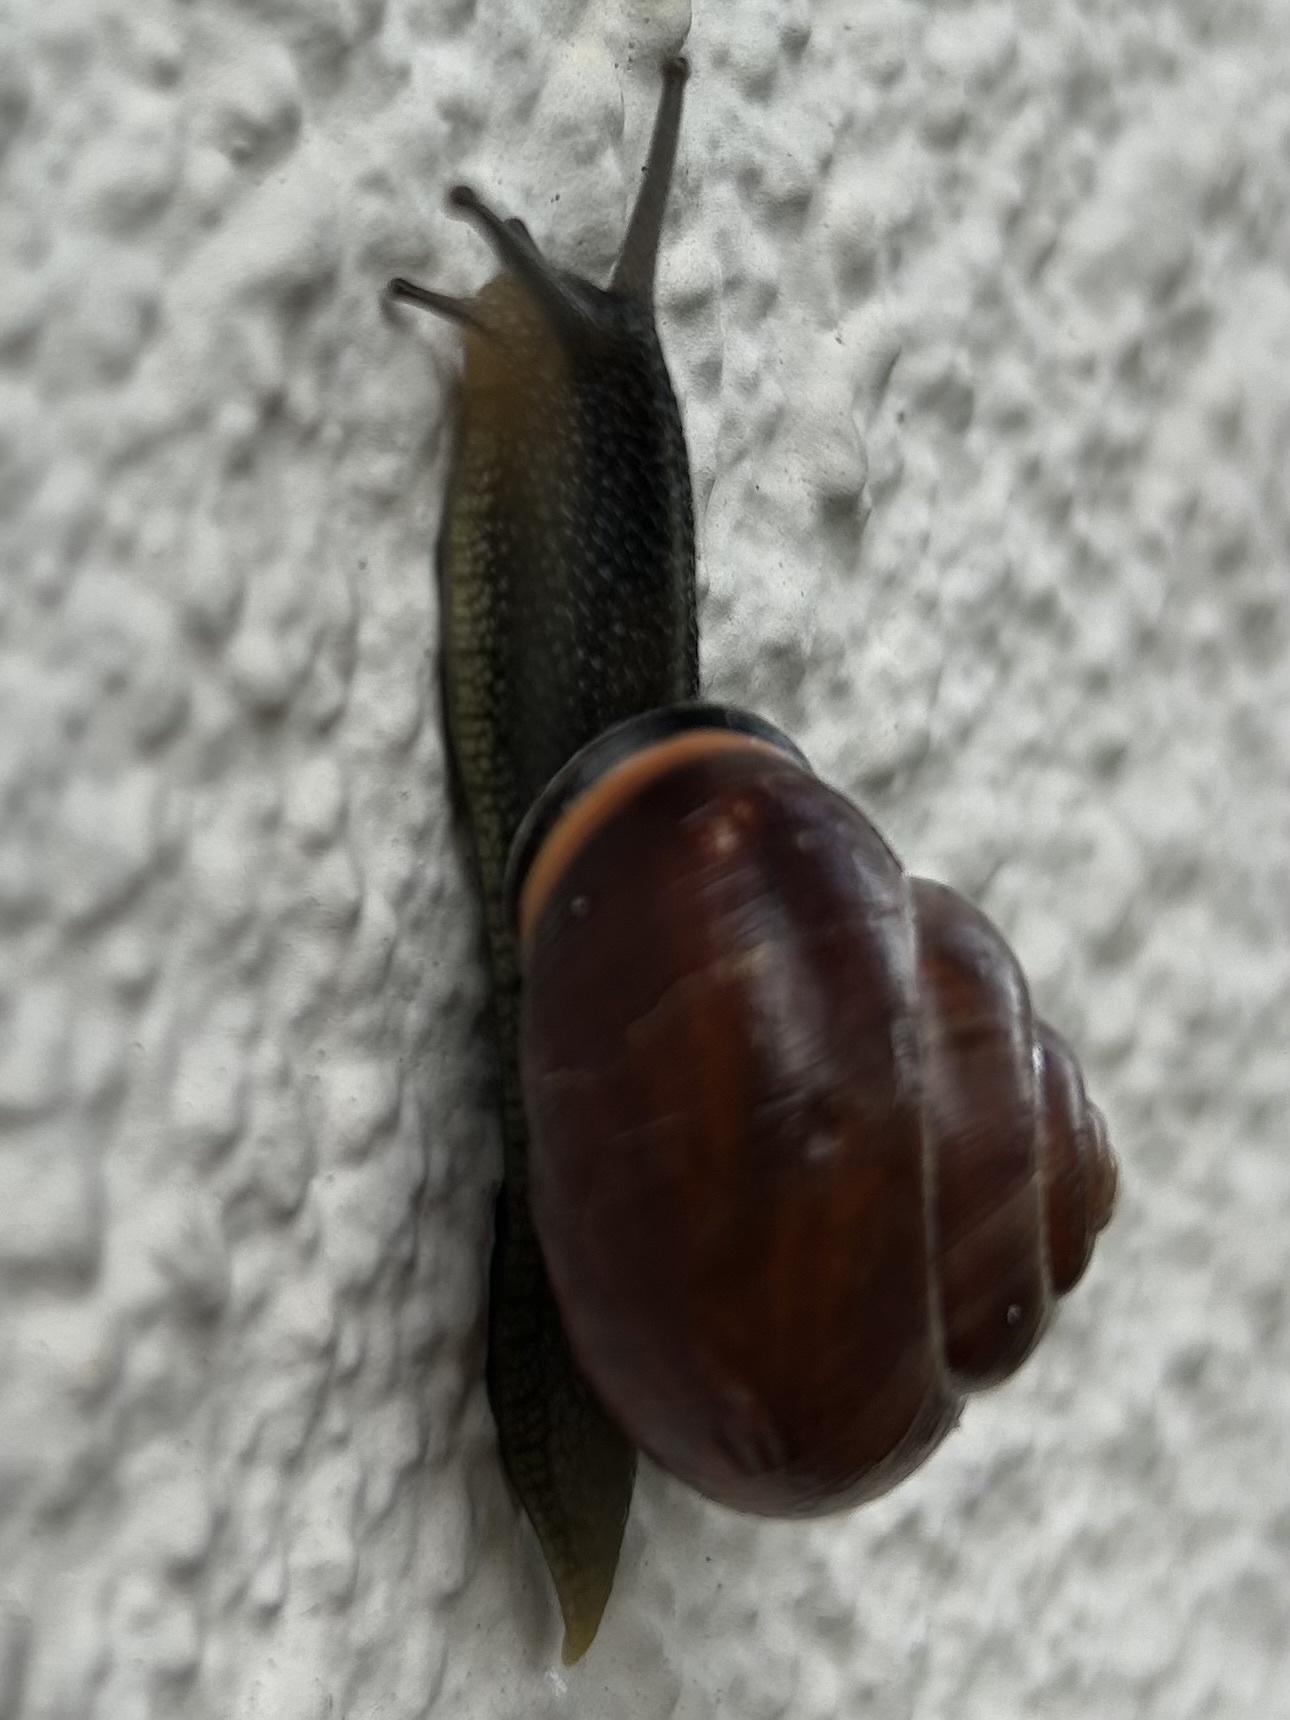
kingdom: Animalia
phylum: Mollusca
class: Gastropoda
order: Stylommatophora
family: Helicidae
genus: Cepaea
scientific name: Cepaea nemoralis
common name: Grovesnail
